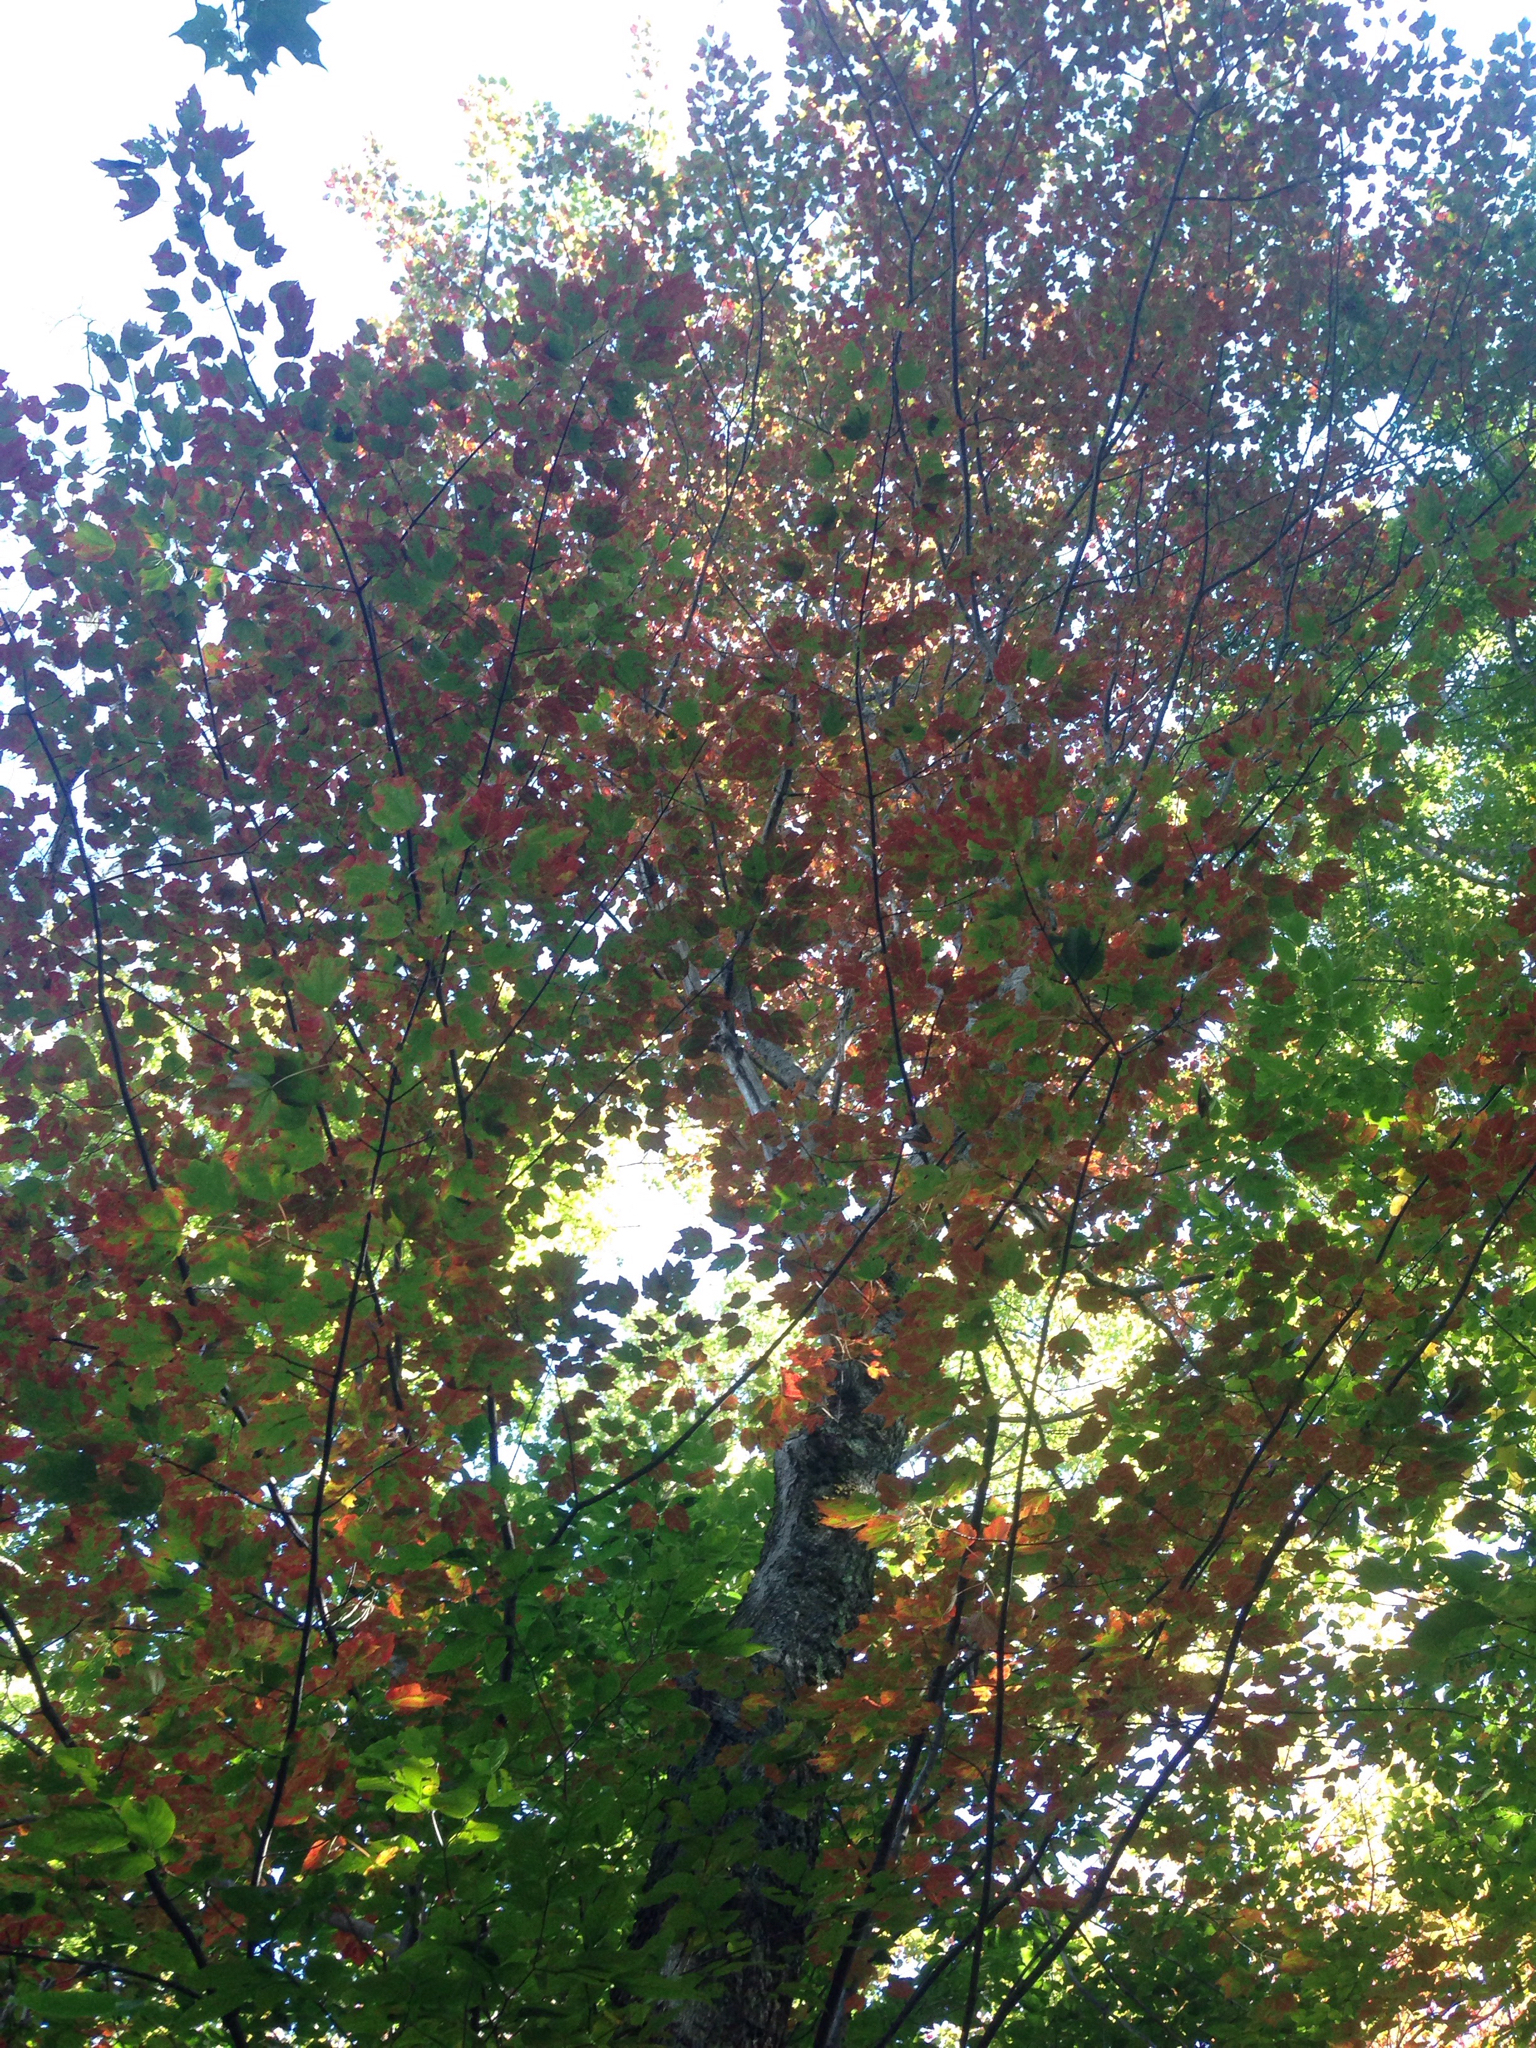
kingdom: Plantae
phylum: Tracheophyta
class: Magnoliopsida
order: Sapindales
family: Sapindaceae
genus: Acer
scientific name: Acer rubrum
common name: Red maple
